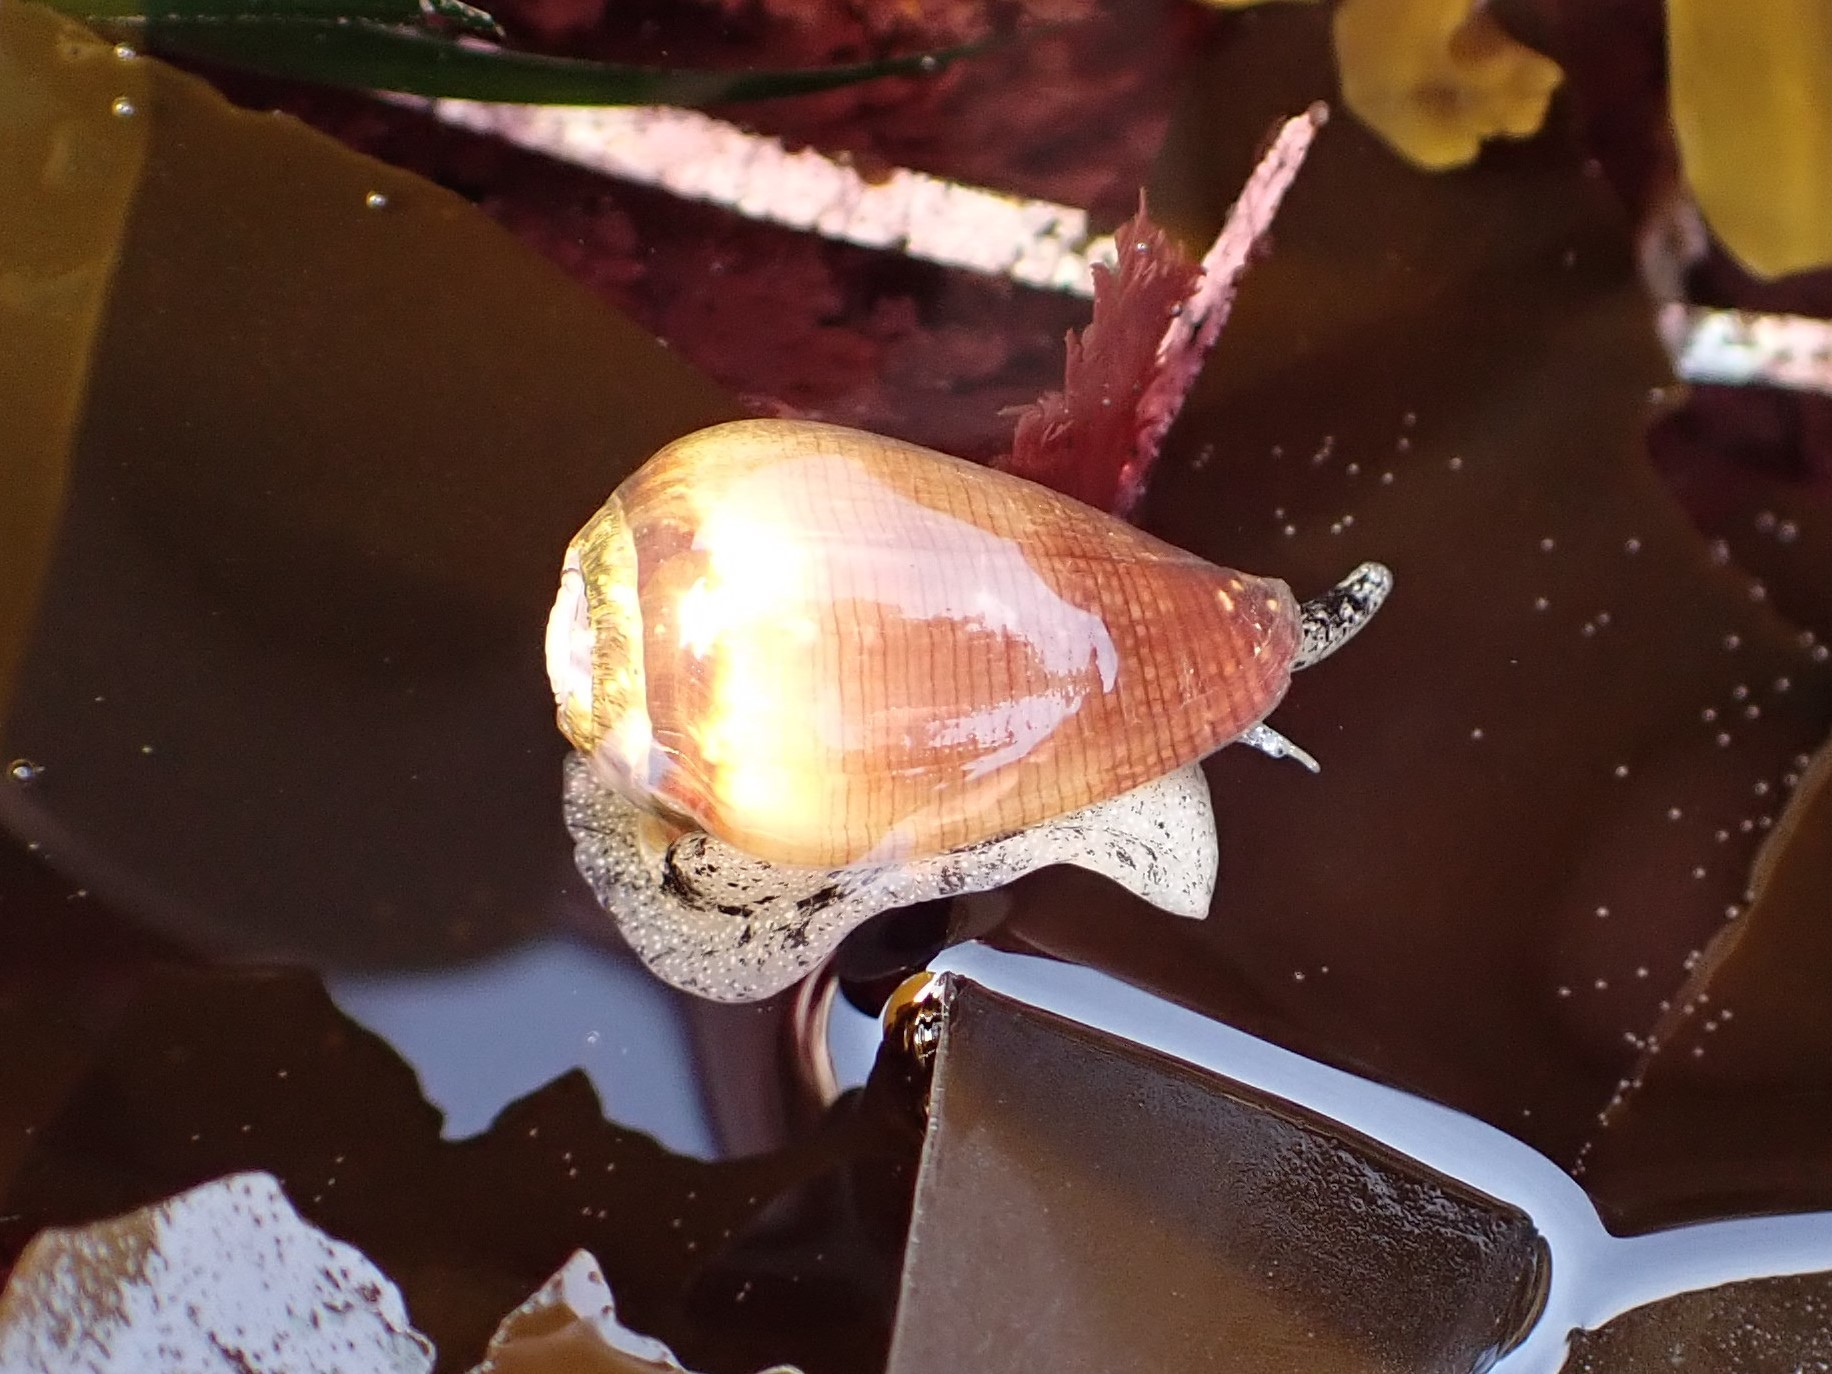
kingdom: Animalia
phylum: Mollusca
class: Gastropoda
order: Neogastropoda
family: Conidae
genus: Californiconus
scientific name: Californiconus californicus
